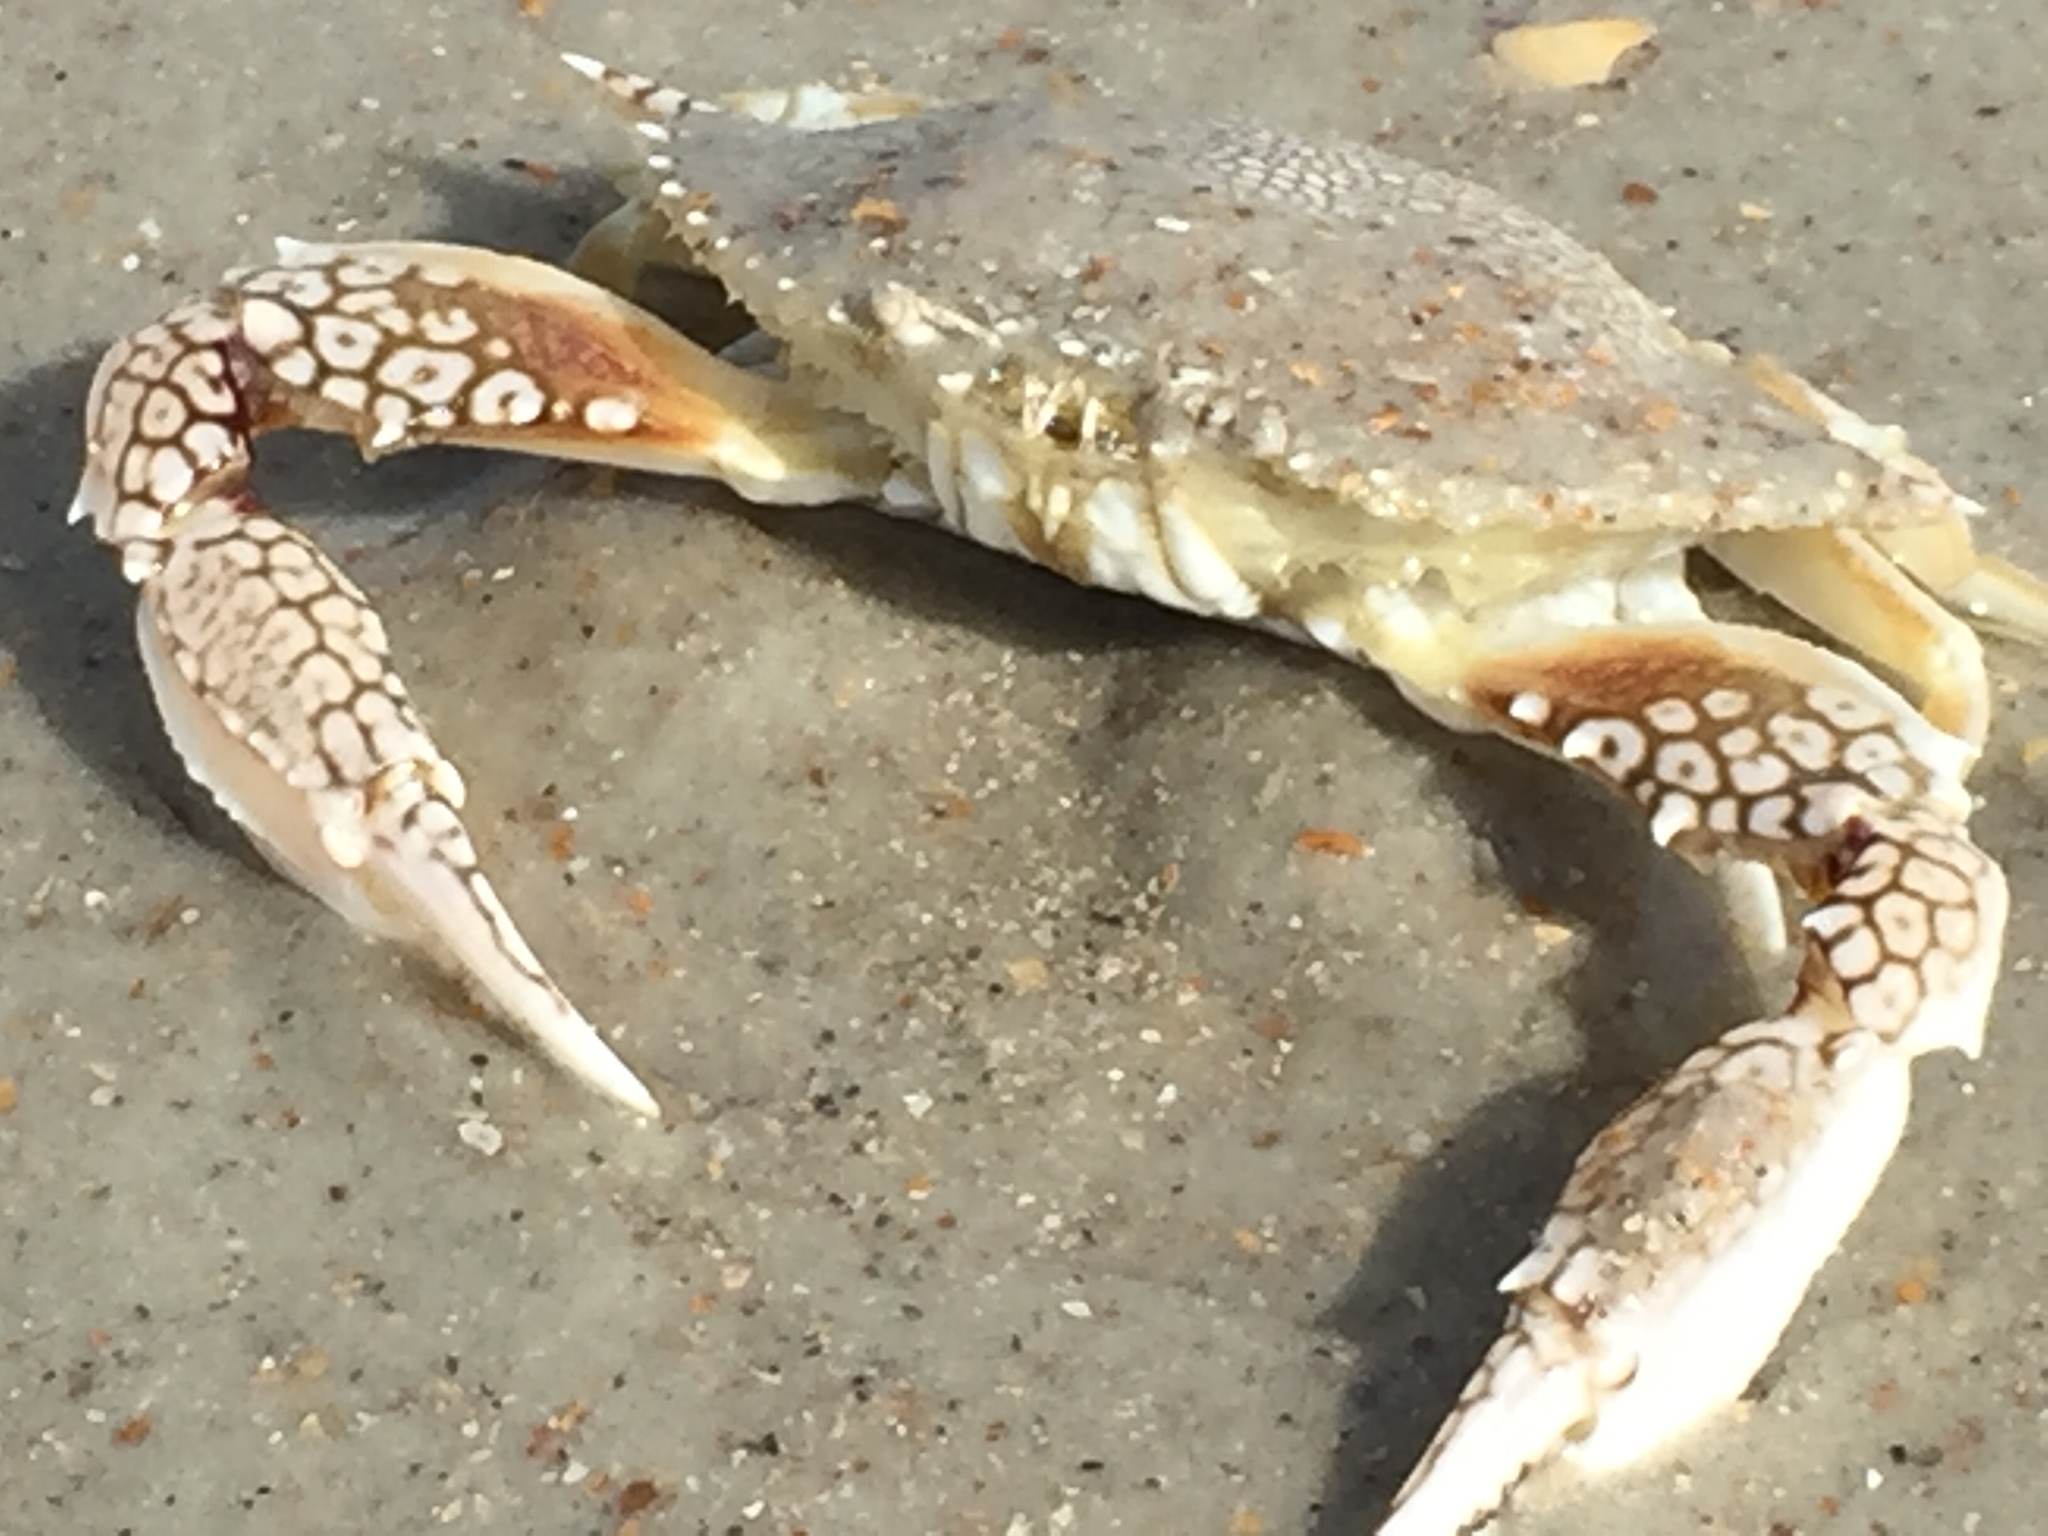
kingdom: Animalia
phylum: Arthropoda
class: Malacostraca
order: Decapoda
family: Portunidae
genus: Arenaeus
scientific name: Arenaeus cribrarius
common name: Speckled crab
